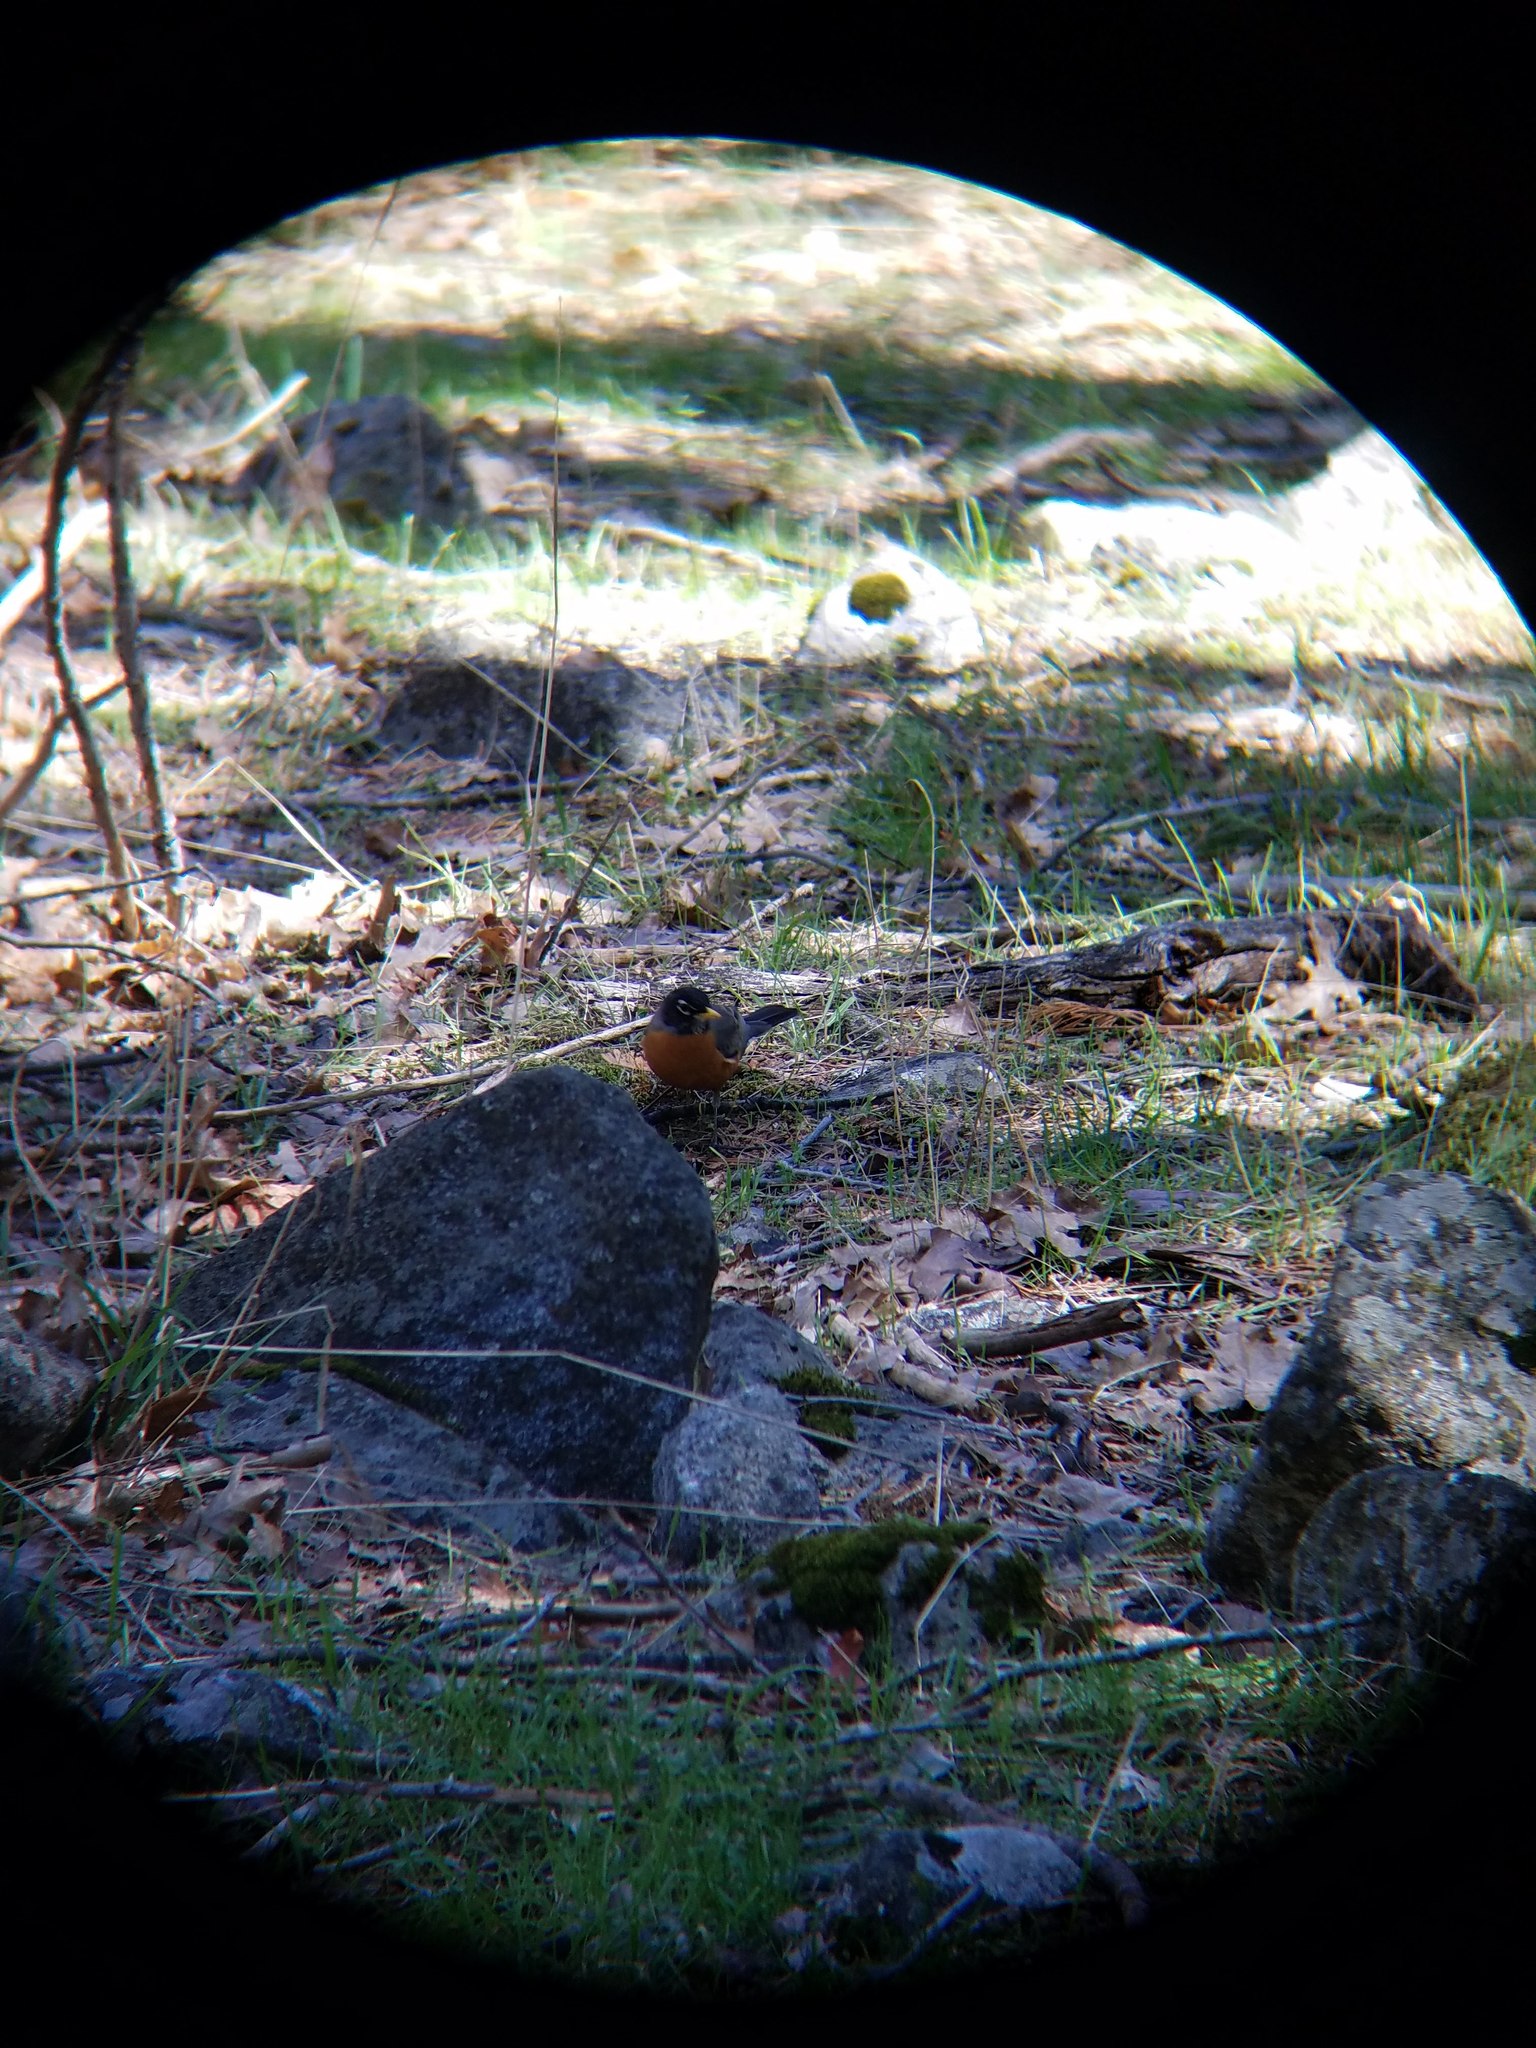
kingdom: Animalia
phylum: Chordata
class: Aves
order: Passeriformes
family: Turdidae
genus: Turdus
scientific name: Turdus migratorius
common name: American robin
